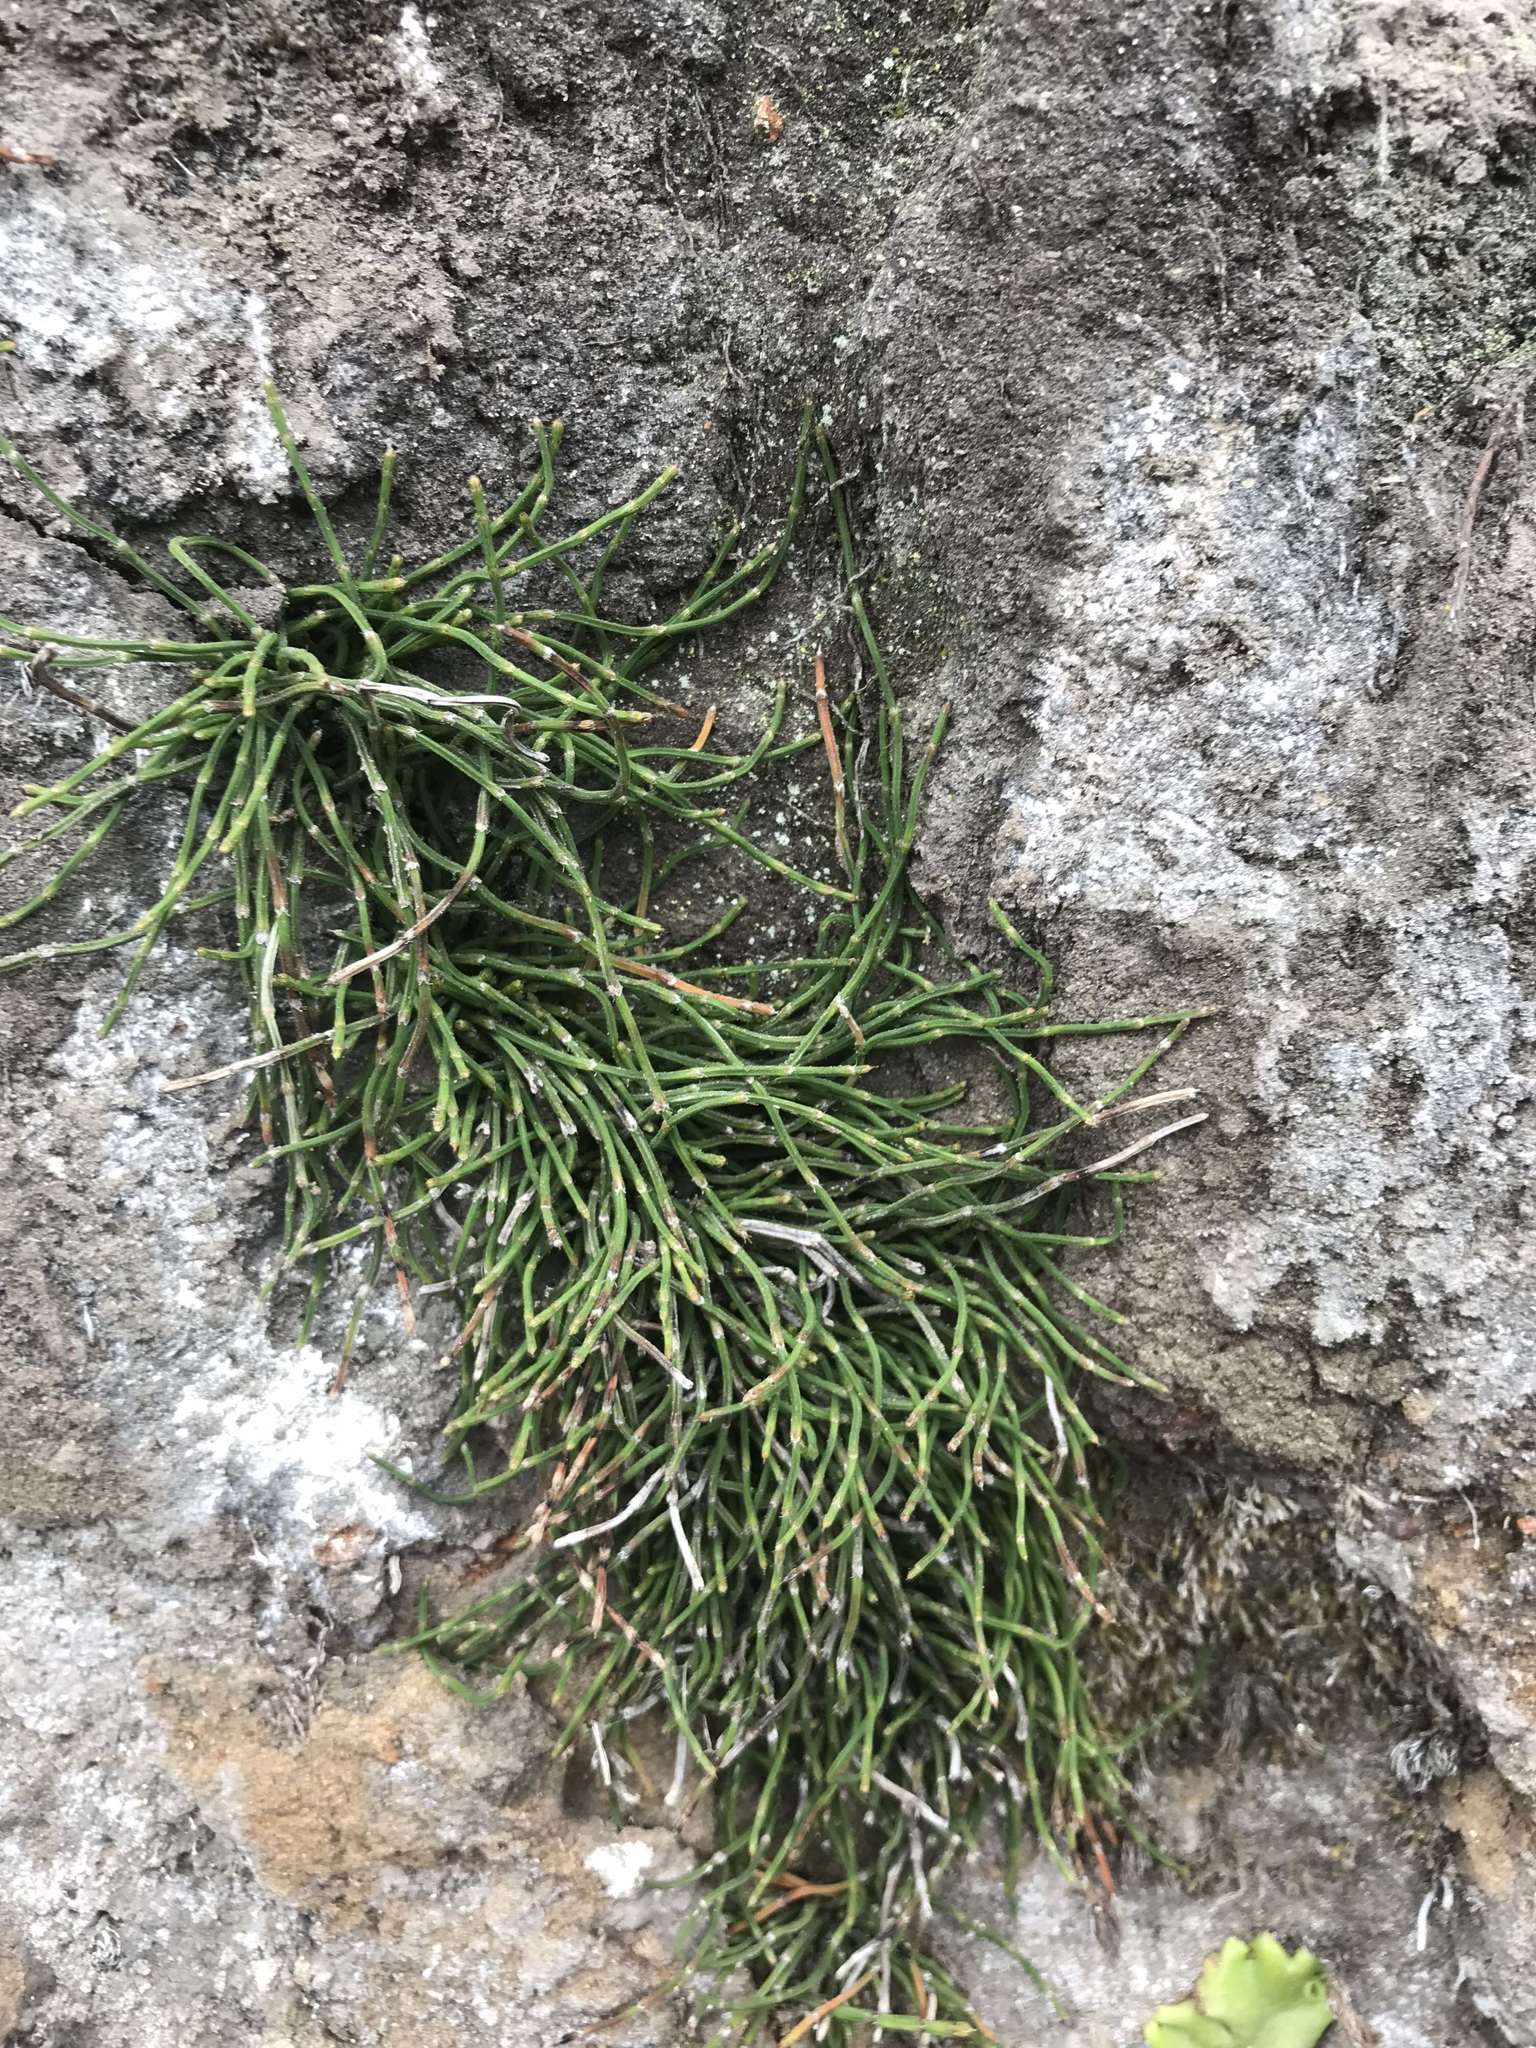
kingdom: Plantae
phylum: Tracheophyta
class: Polypodiopsida
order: Equisetales
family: Equisetaceae
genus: Equisetum
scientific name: Equisetum bogotense
